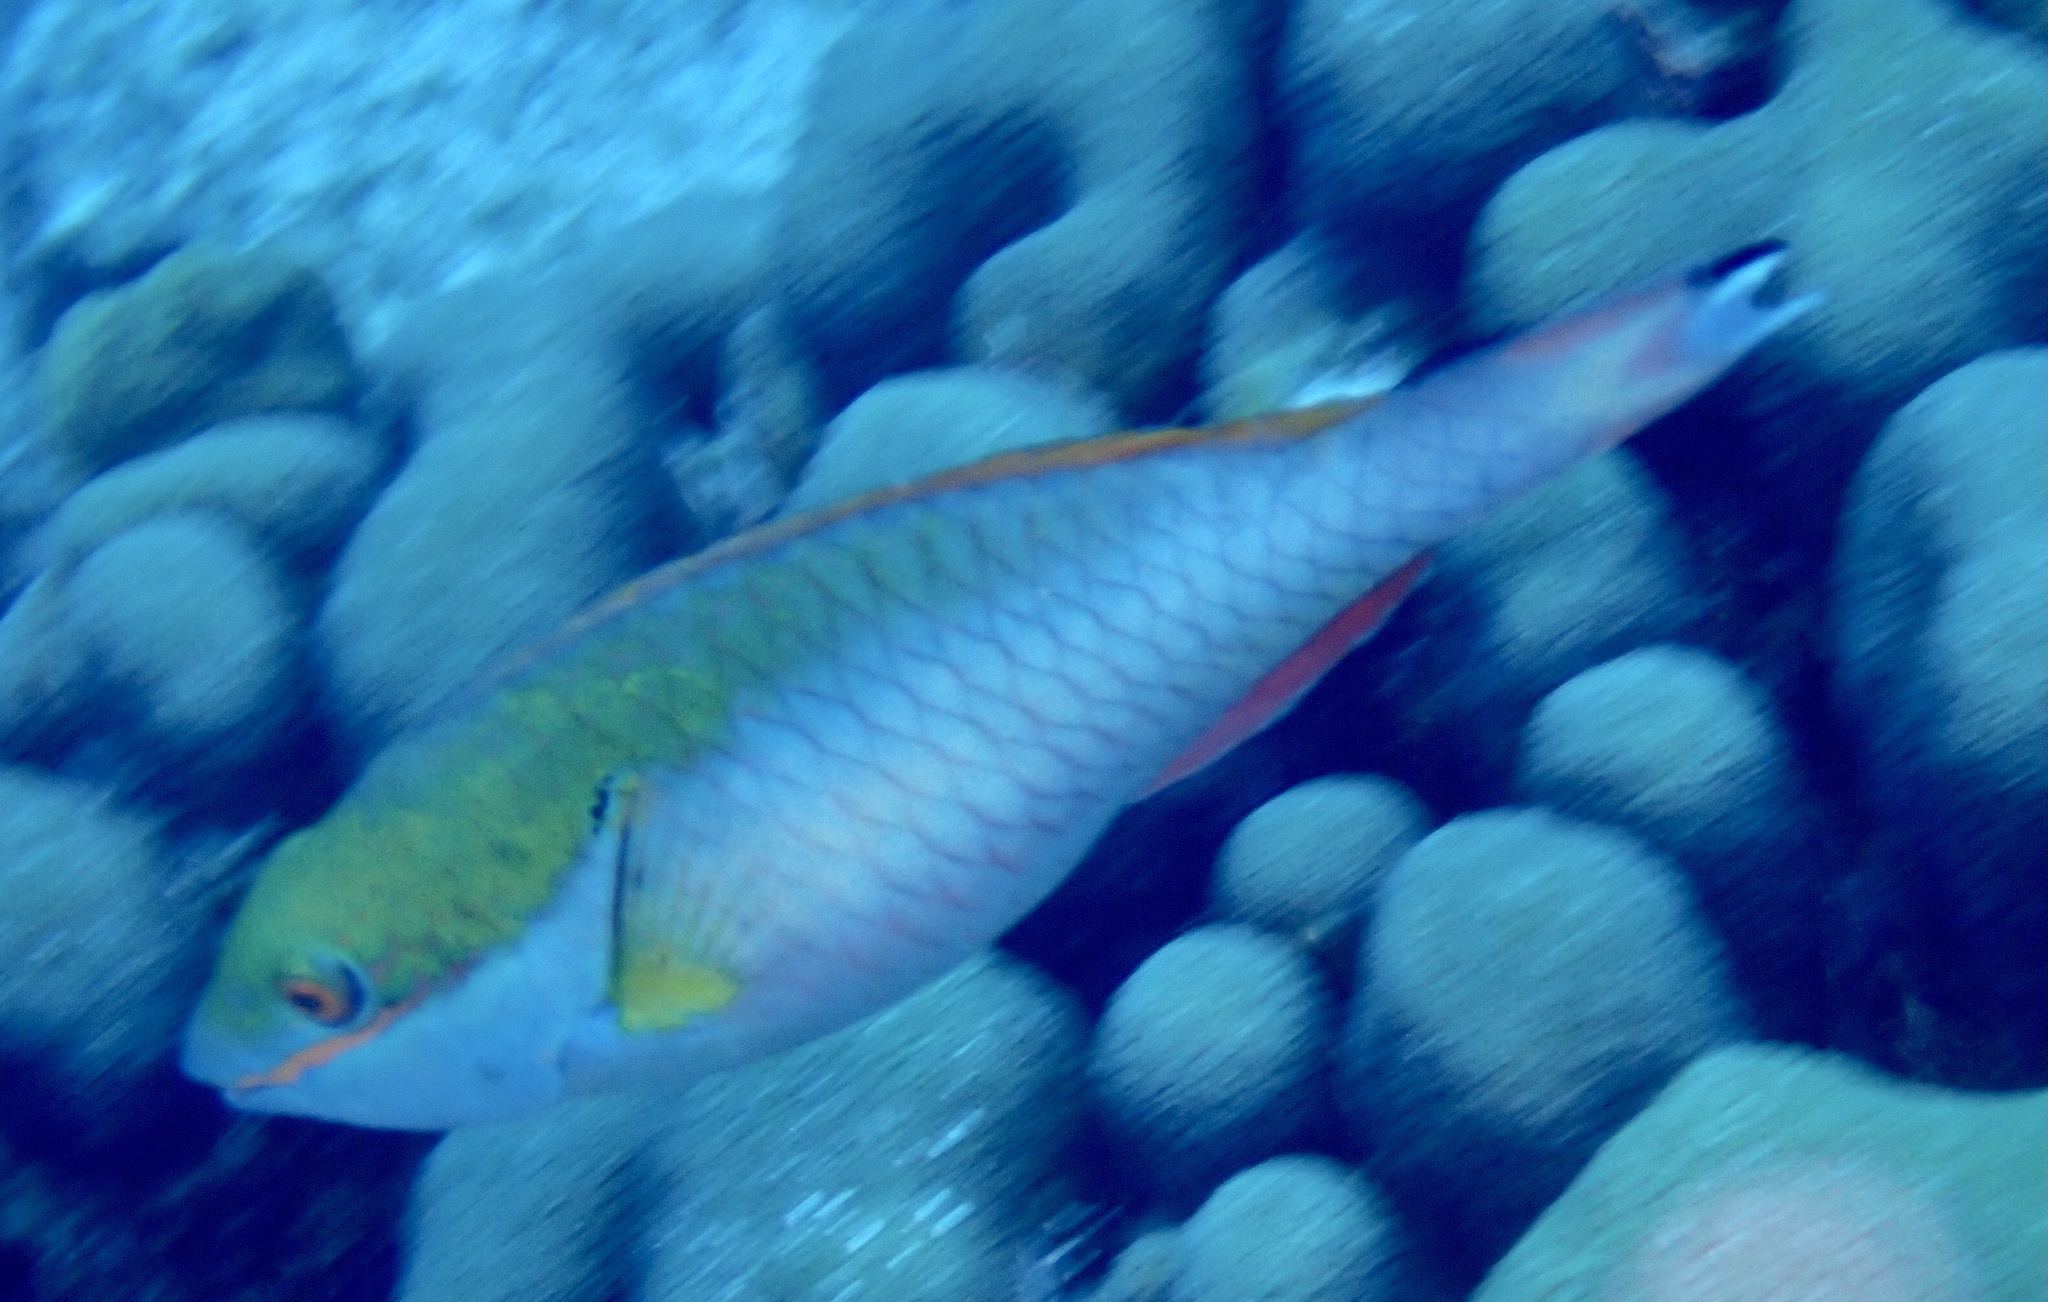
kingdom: Animalia
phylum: Chordata
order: Perciformes
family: Scaridae
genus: Sparisoma
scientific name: Sparisoma aurofrenatum
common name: Redband parrotfish
